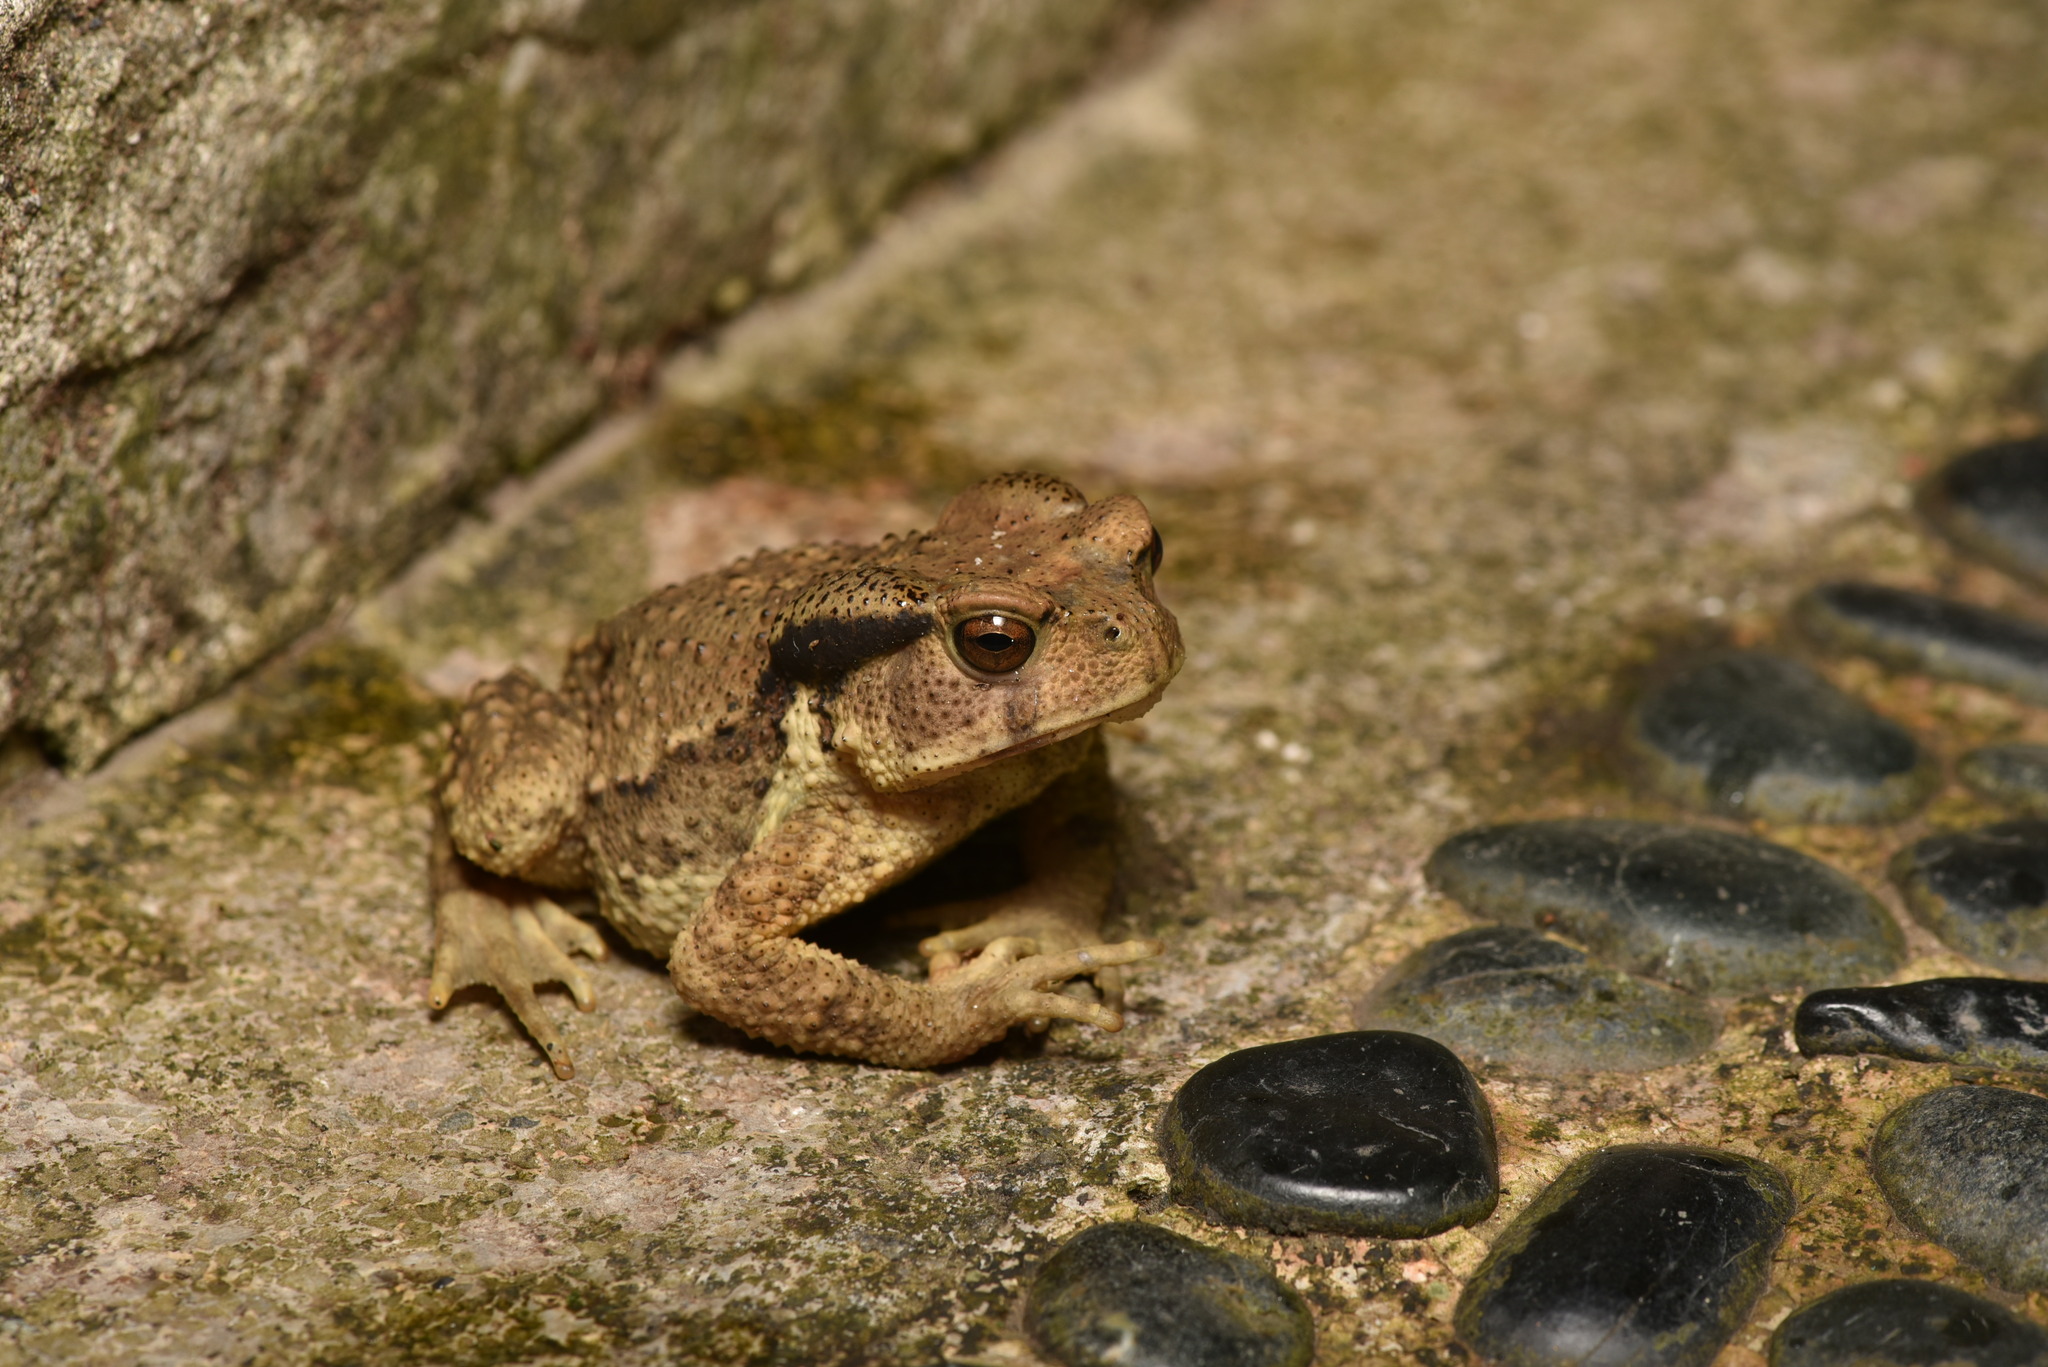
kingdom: Animalia
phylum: Chordata
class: Amphibia
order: Anura
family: Bufonidae
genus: Bufo
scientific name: Bufo bankorensis
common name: Bankor toad
